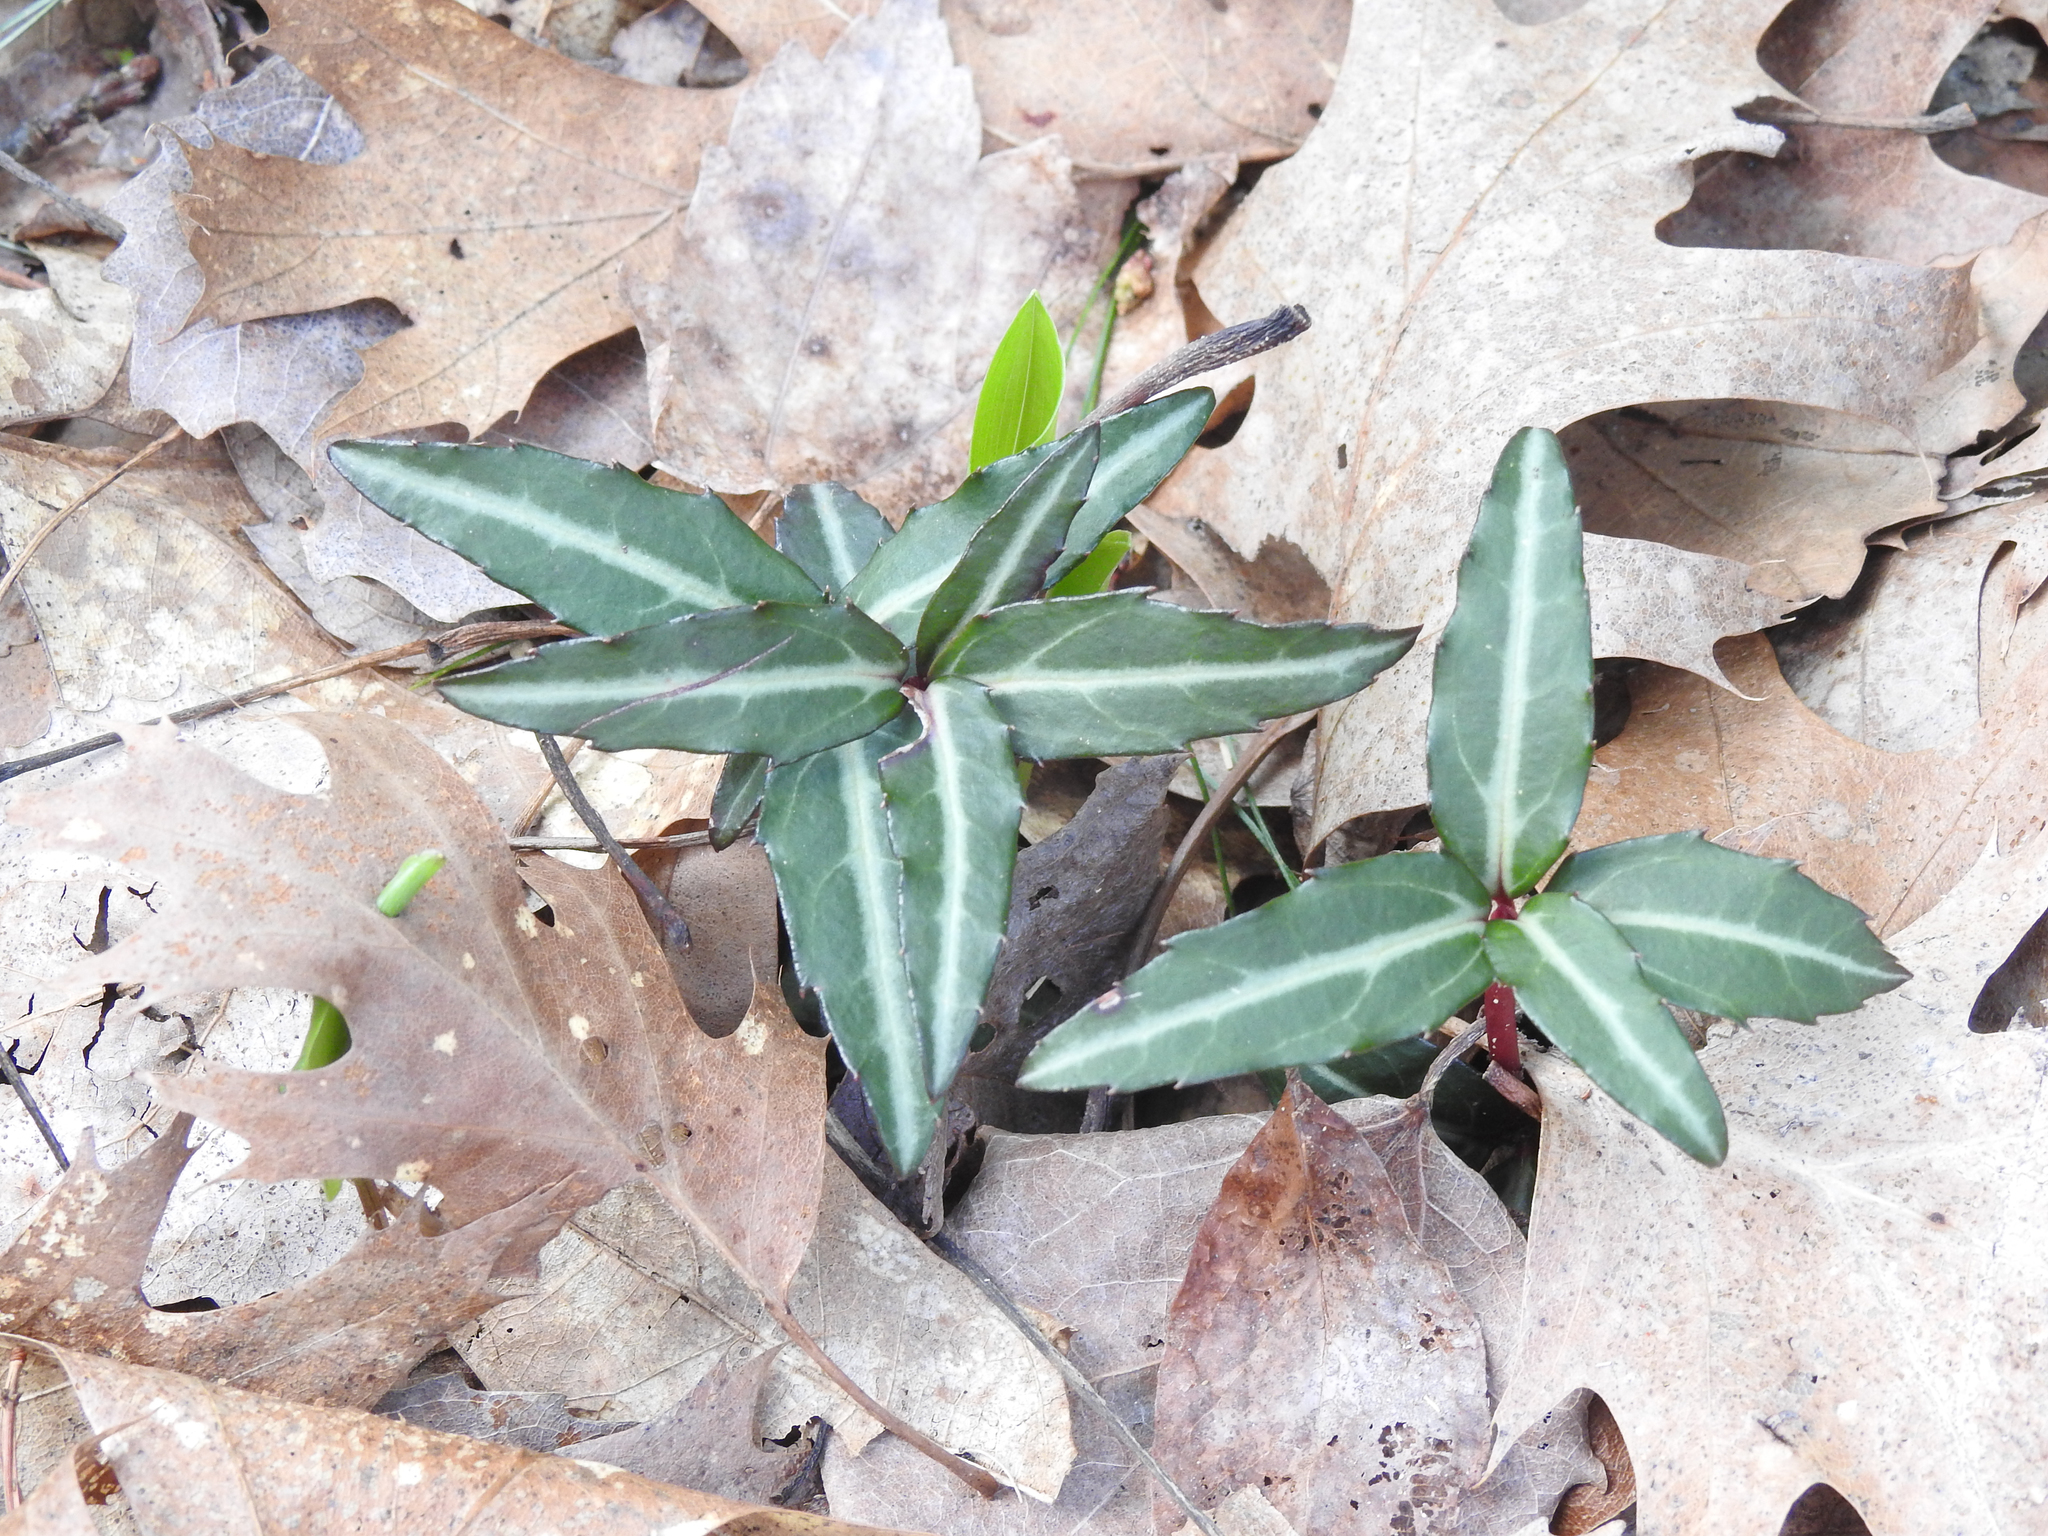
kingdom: Plantae
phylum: Tracheophyta
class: Magnoliopsida
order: Ericales
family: Ericaceae
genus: Chimaphila
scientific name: Chimaphila maculata
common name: Spotted pipsissewa
